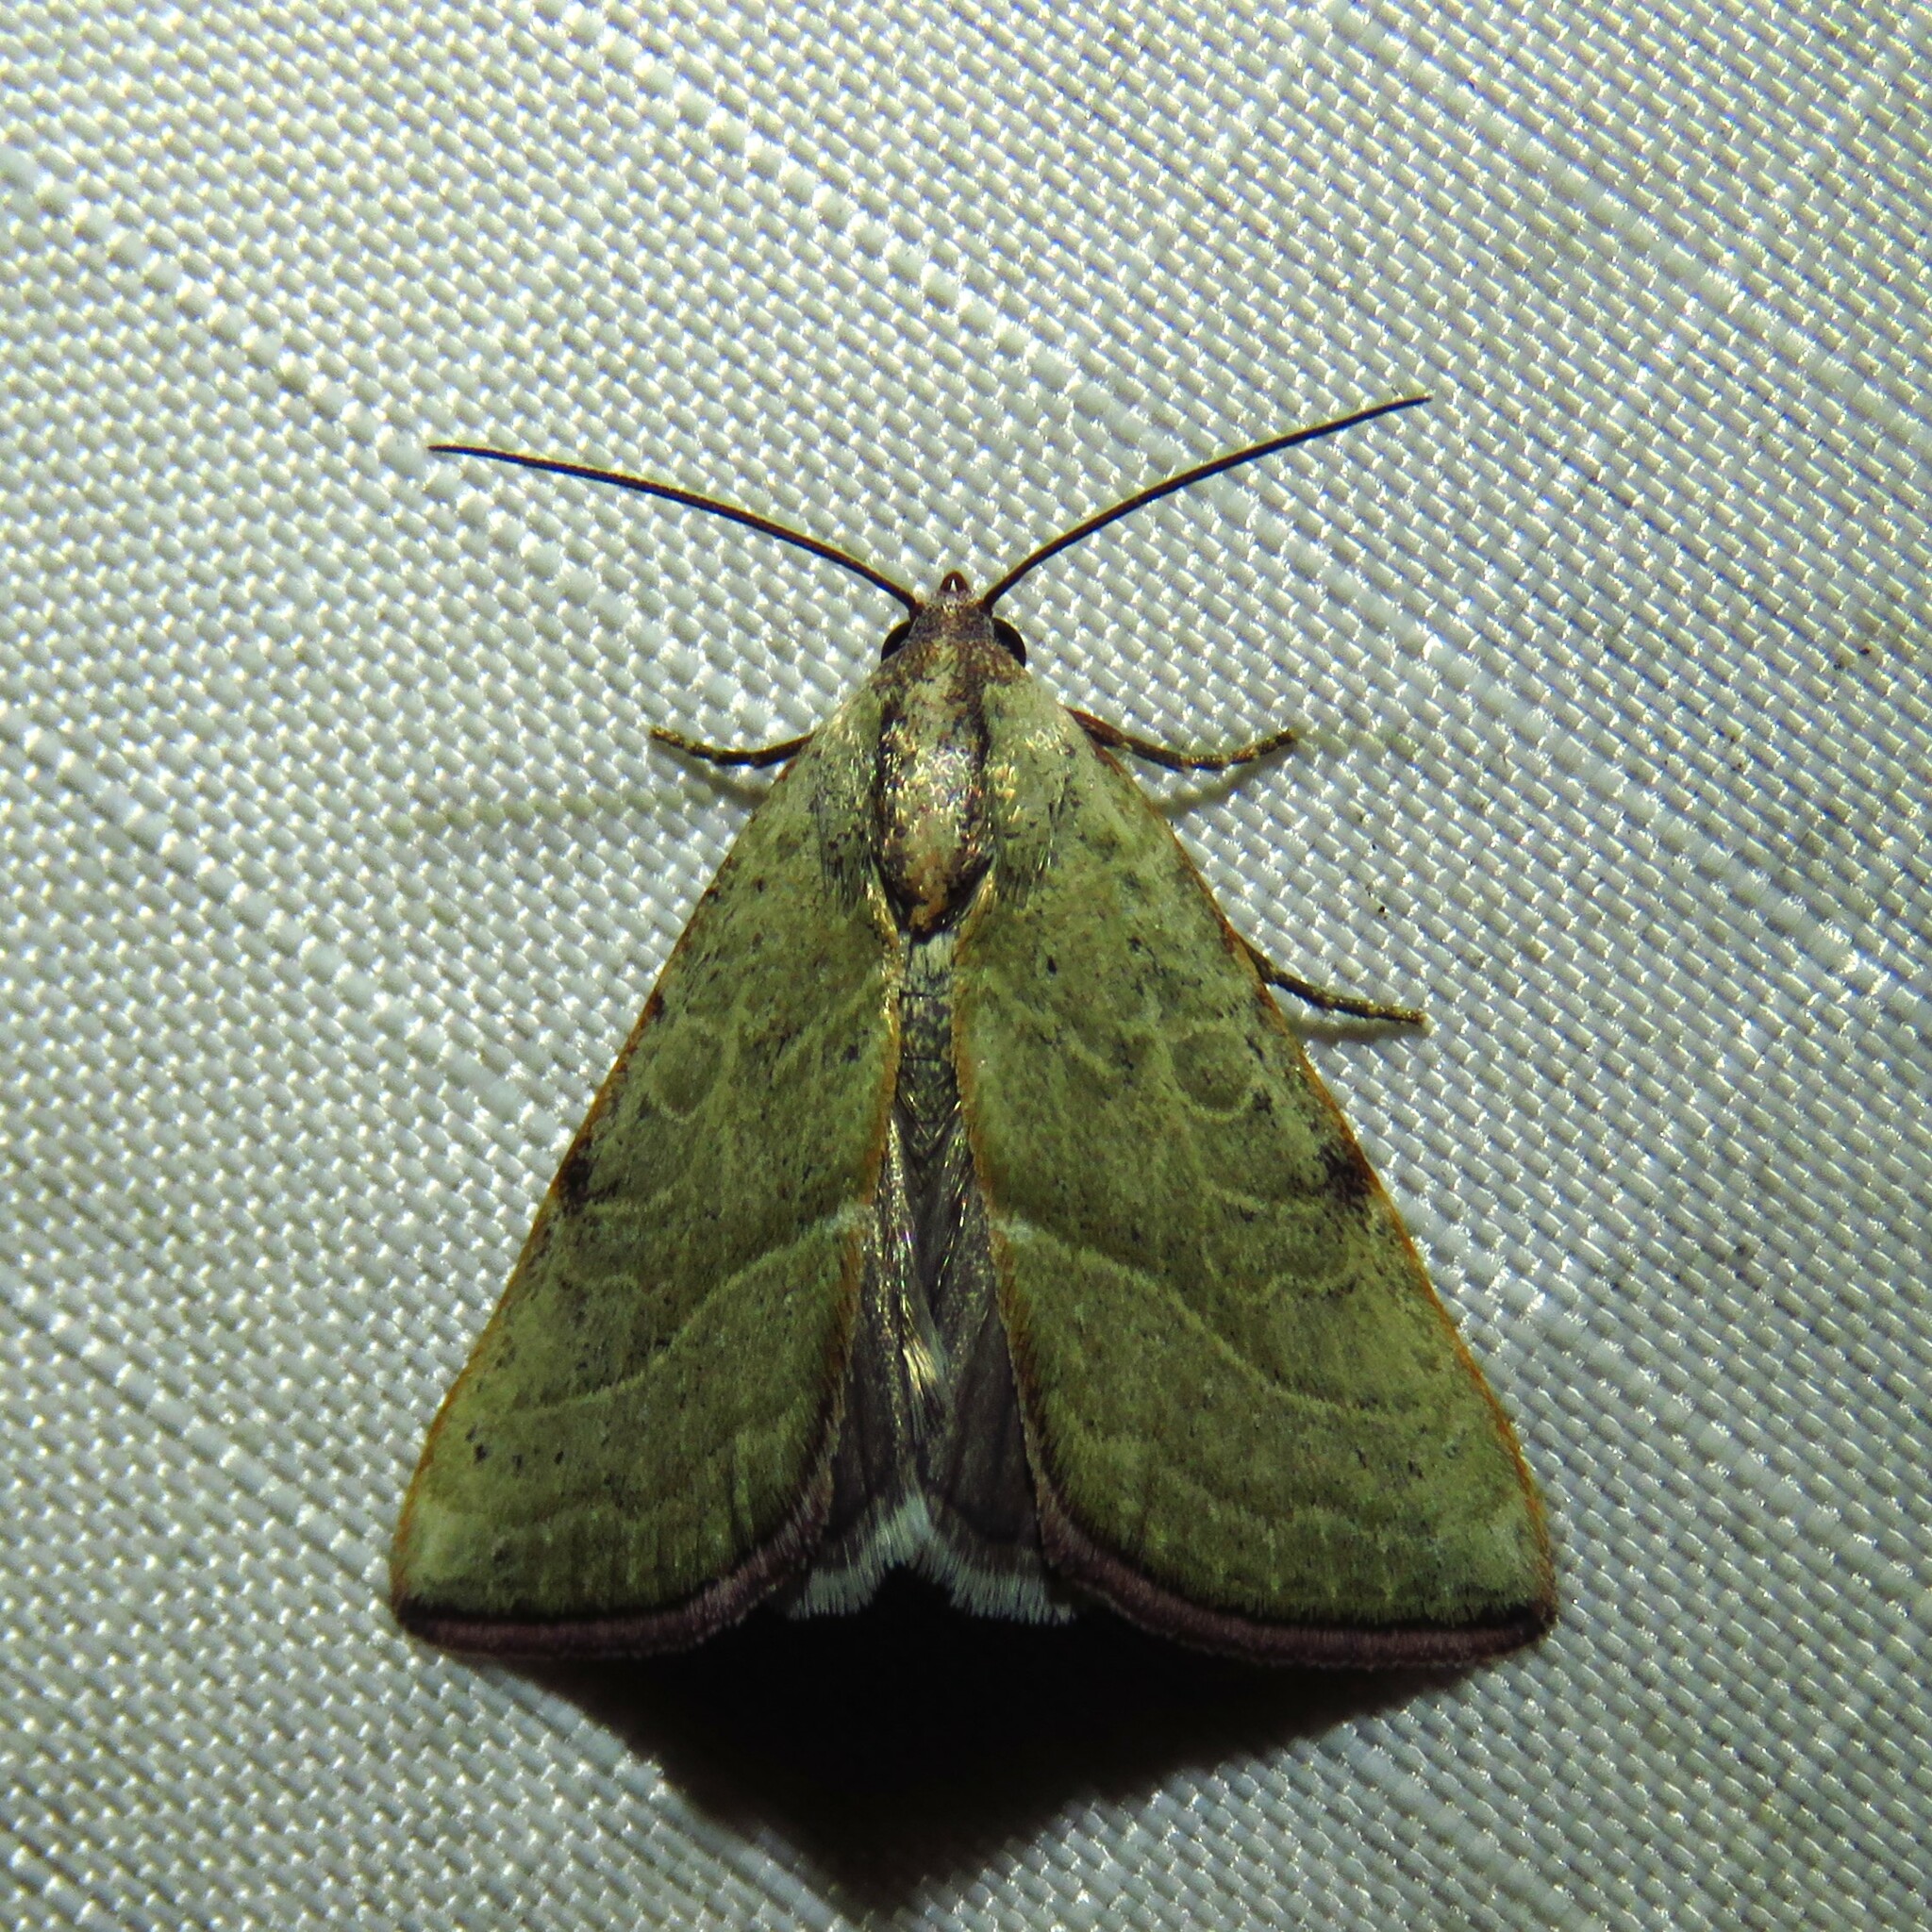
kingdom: Animalia
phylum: Arthropoda
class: Insecta
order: Lepidoptera
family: Noctuidae
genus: Galgula
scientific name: Galgula partita
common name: Wedgeling
